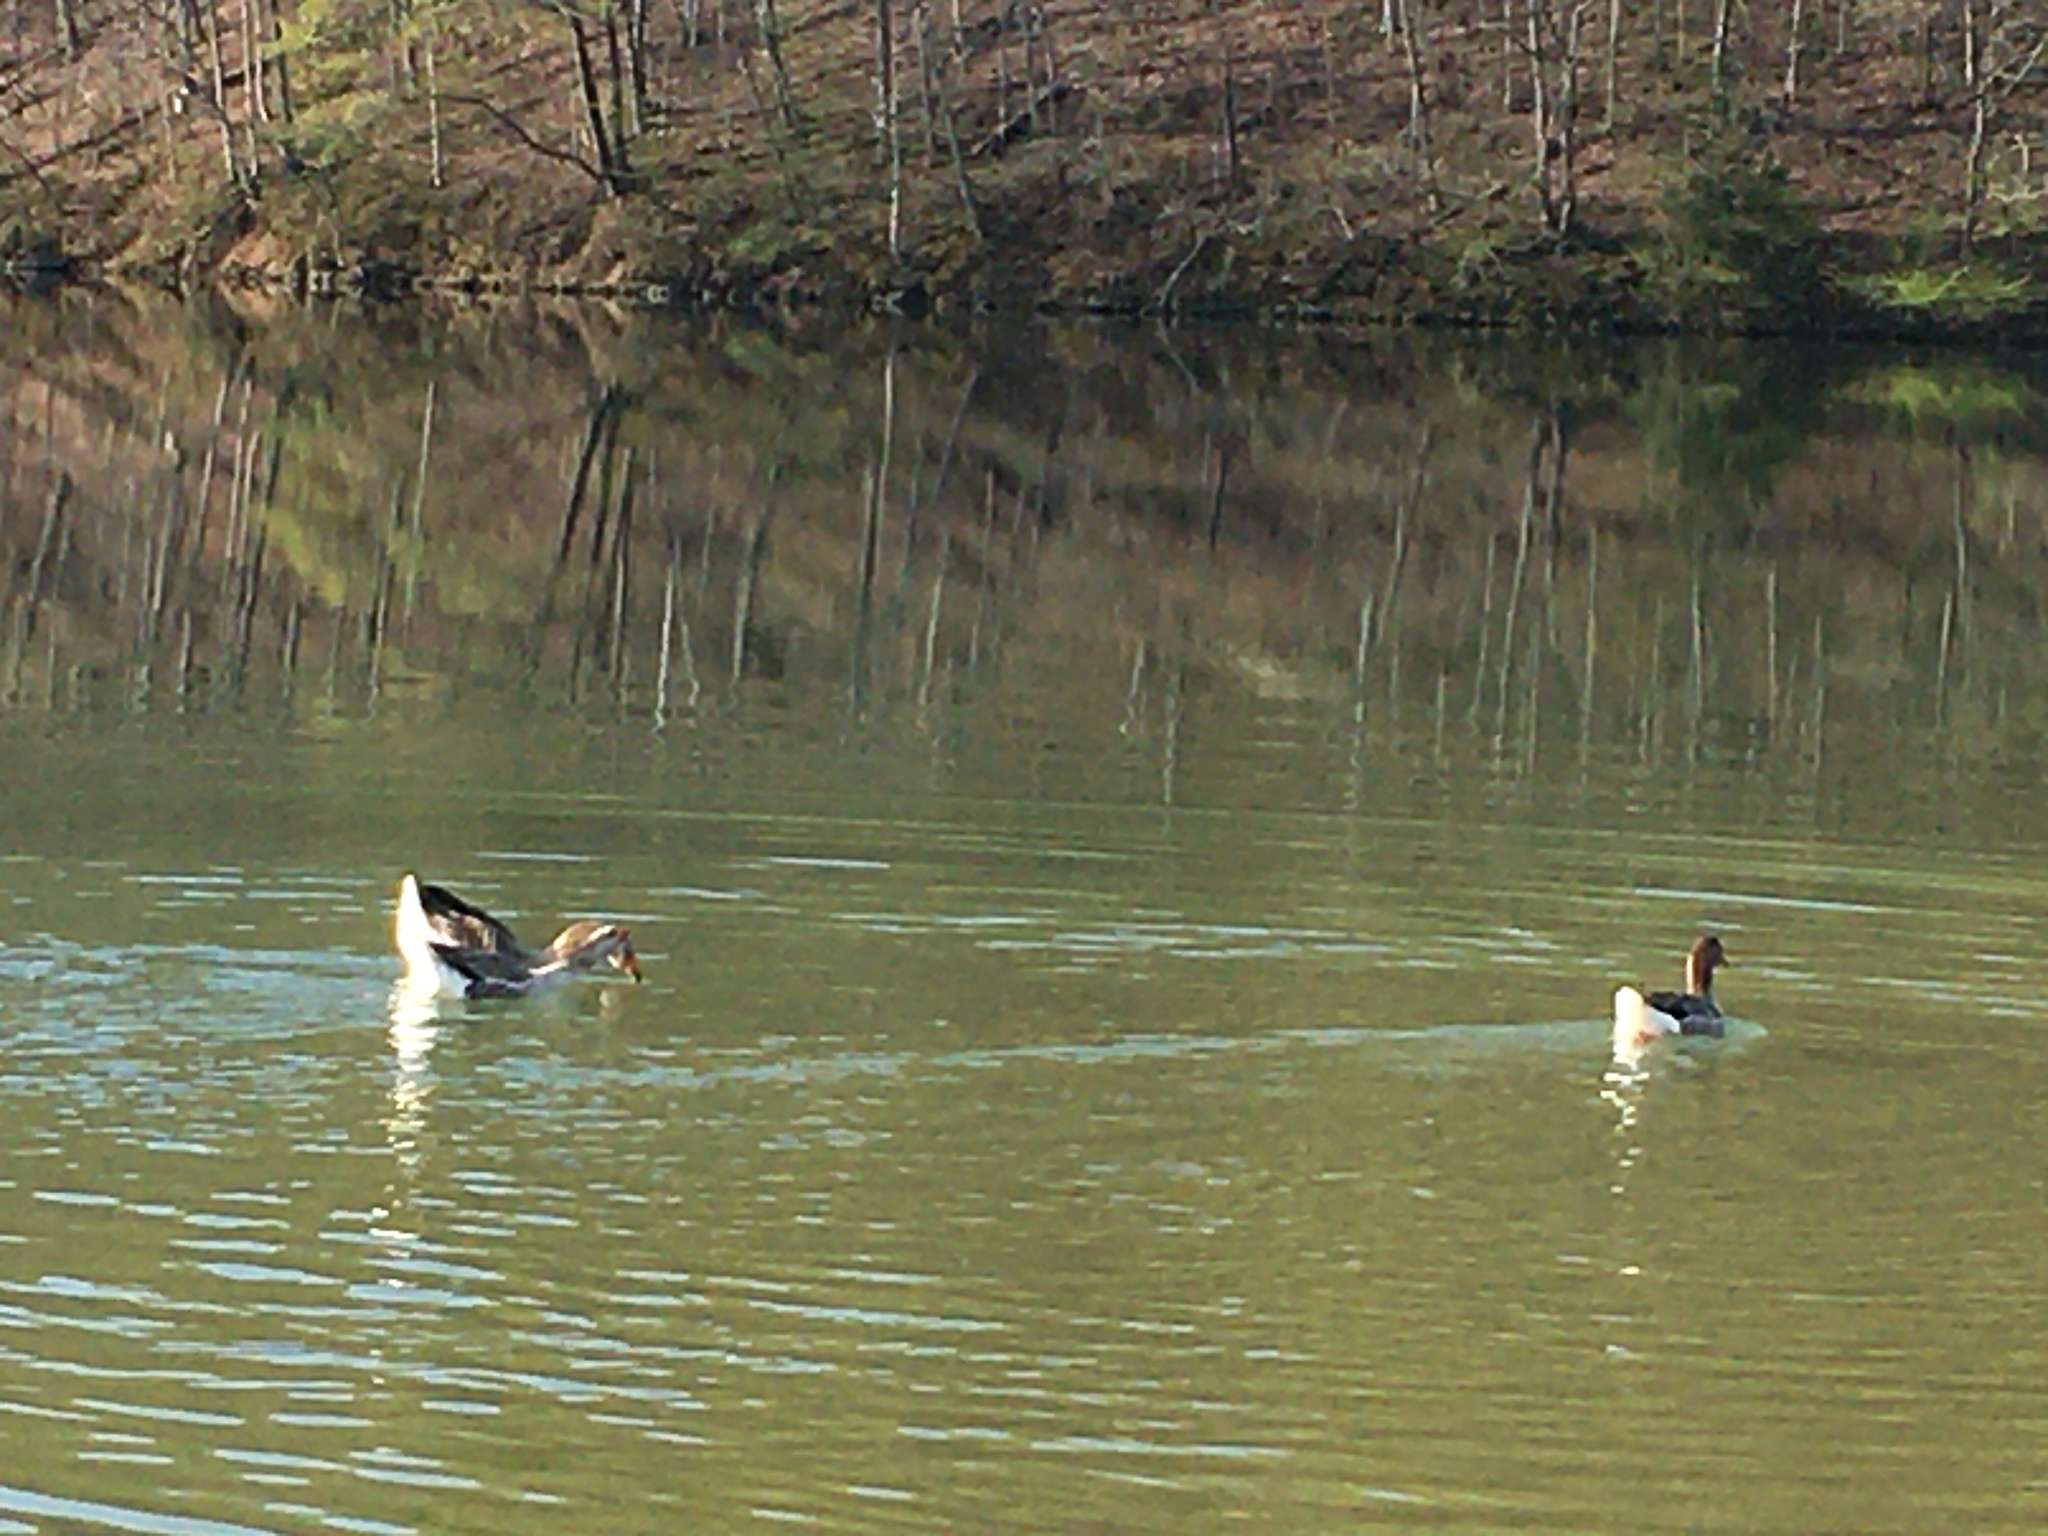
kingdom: Animalia
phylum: Chordata
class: Aves
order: Anseriformes
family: Anatidae
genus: Anser
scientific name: Anser anser
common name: Greylag goose
